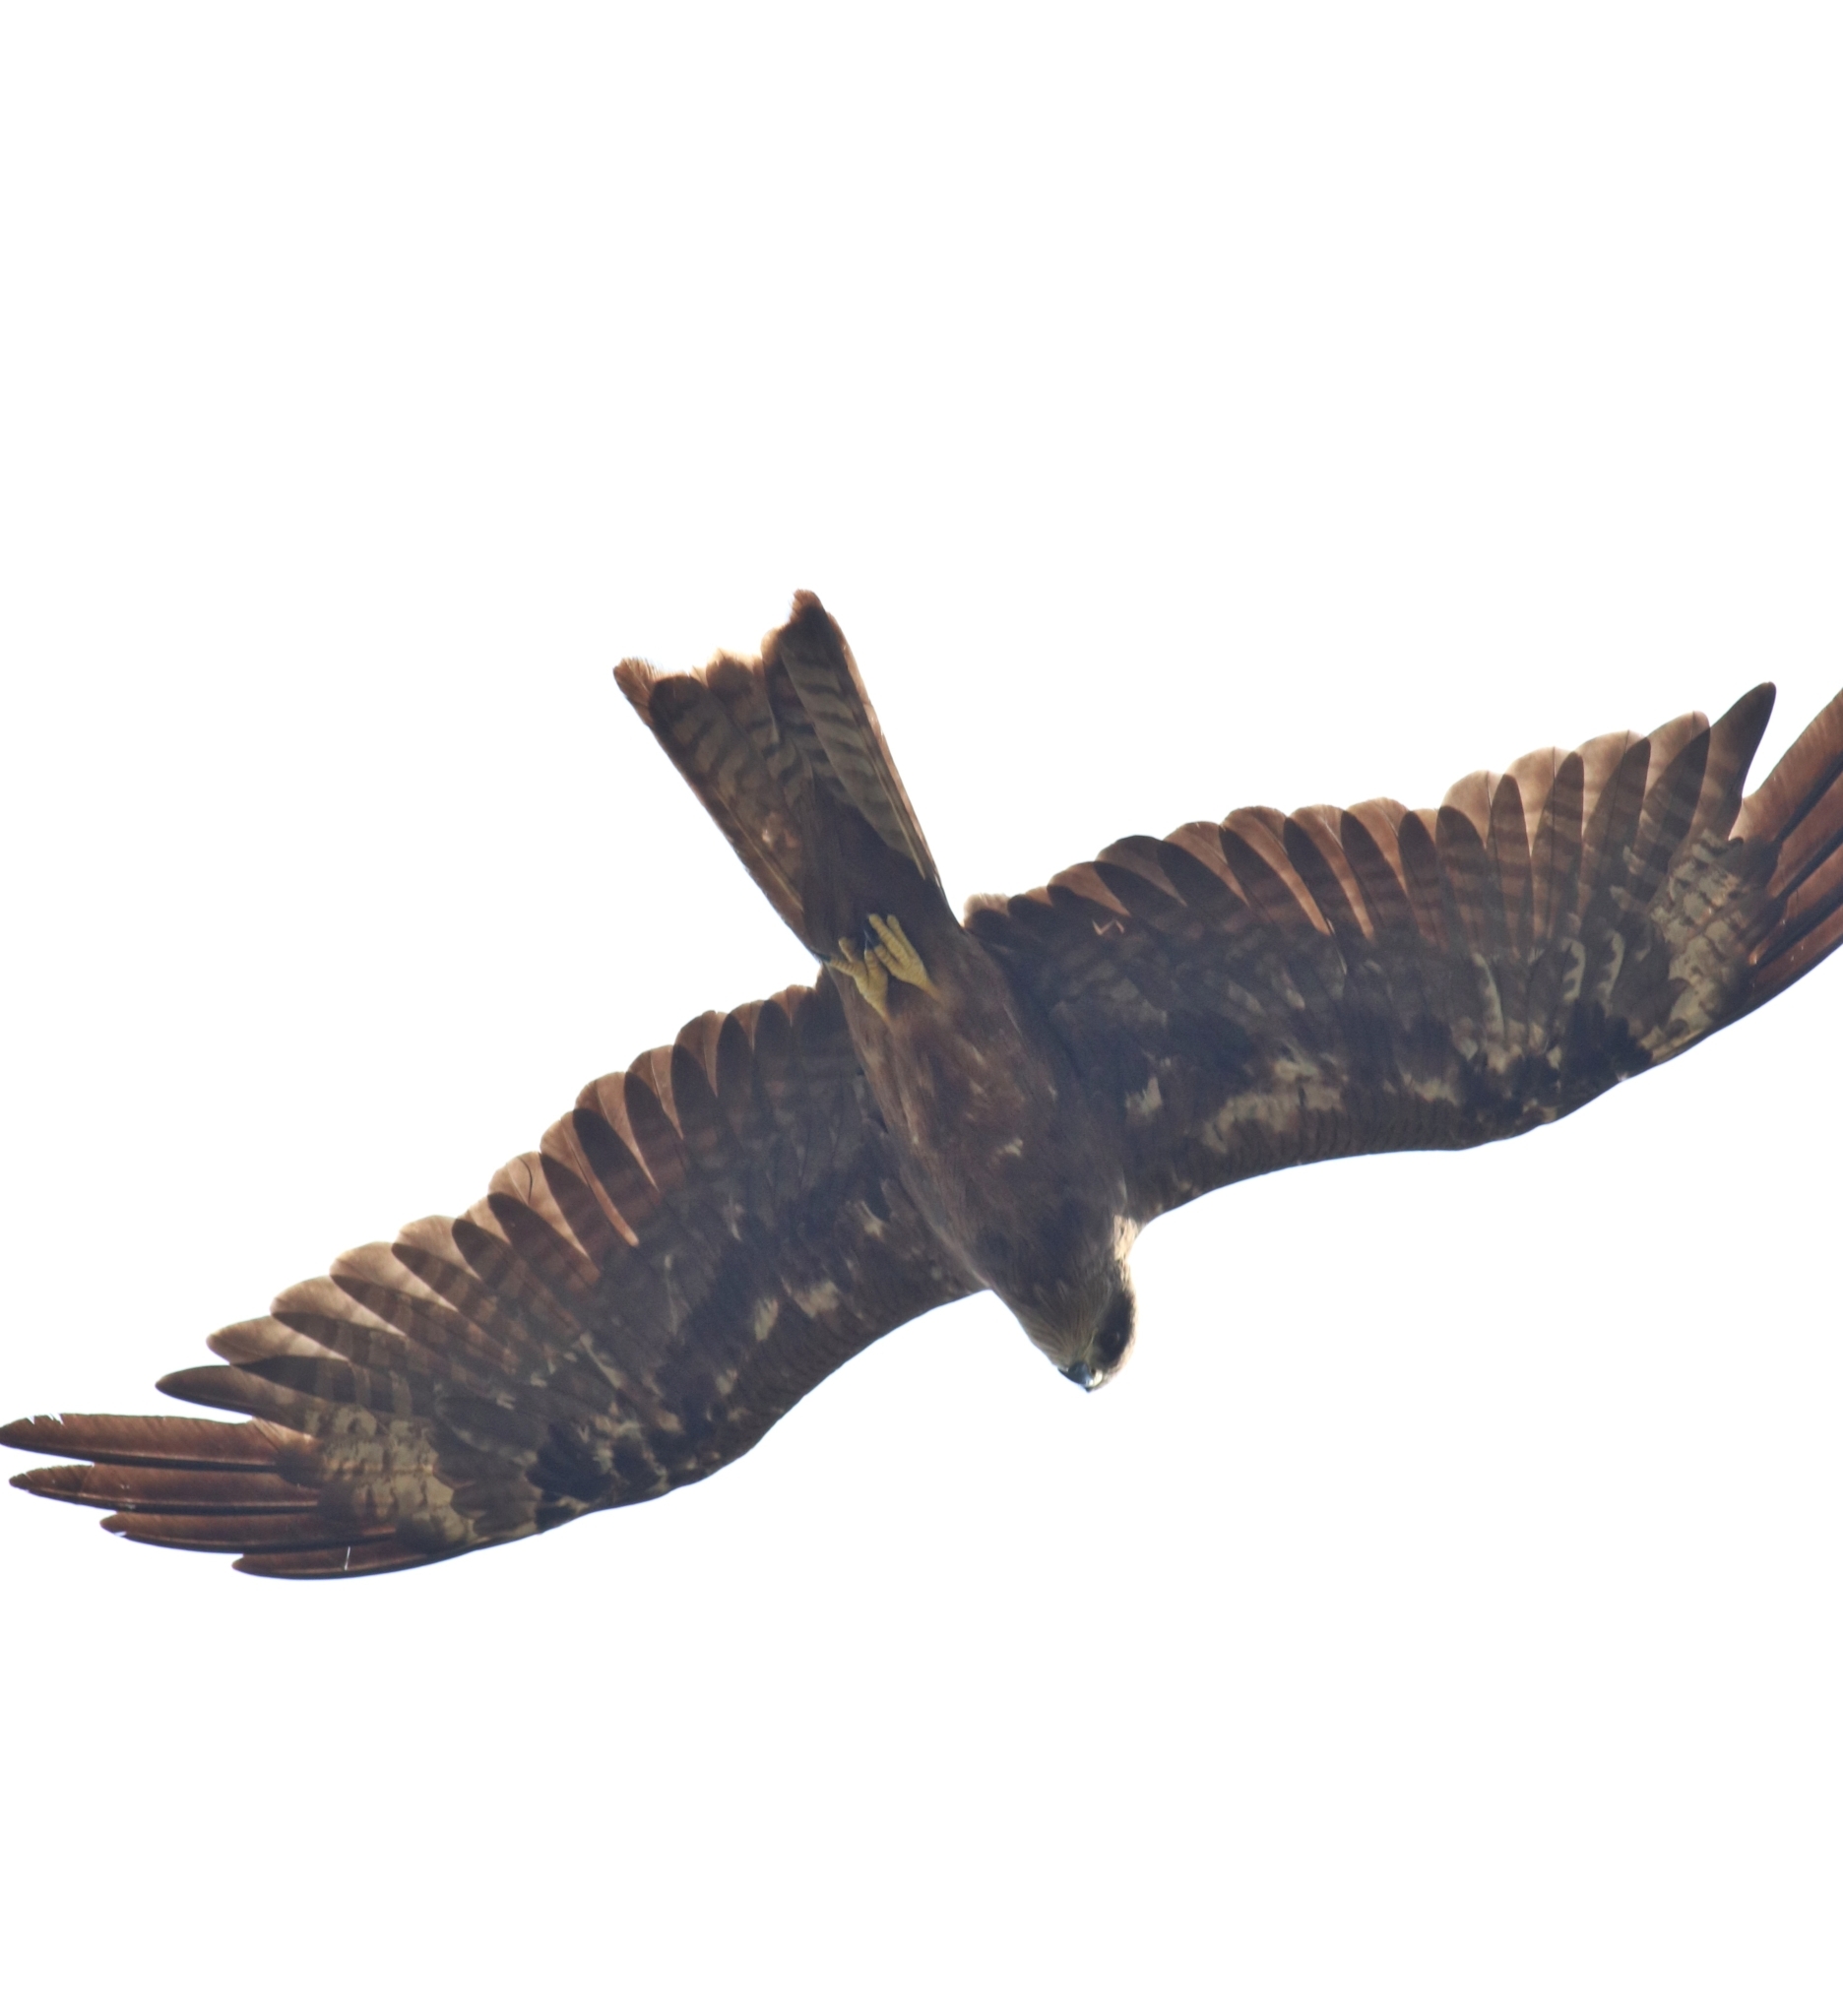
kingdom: Animalia
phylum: Chordata
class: Aves
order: Accipitriformes
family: Accipitridae
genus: Milvus
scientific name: Milvus migrans
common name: Black kite
